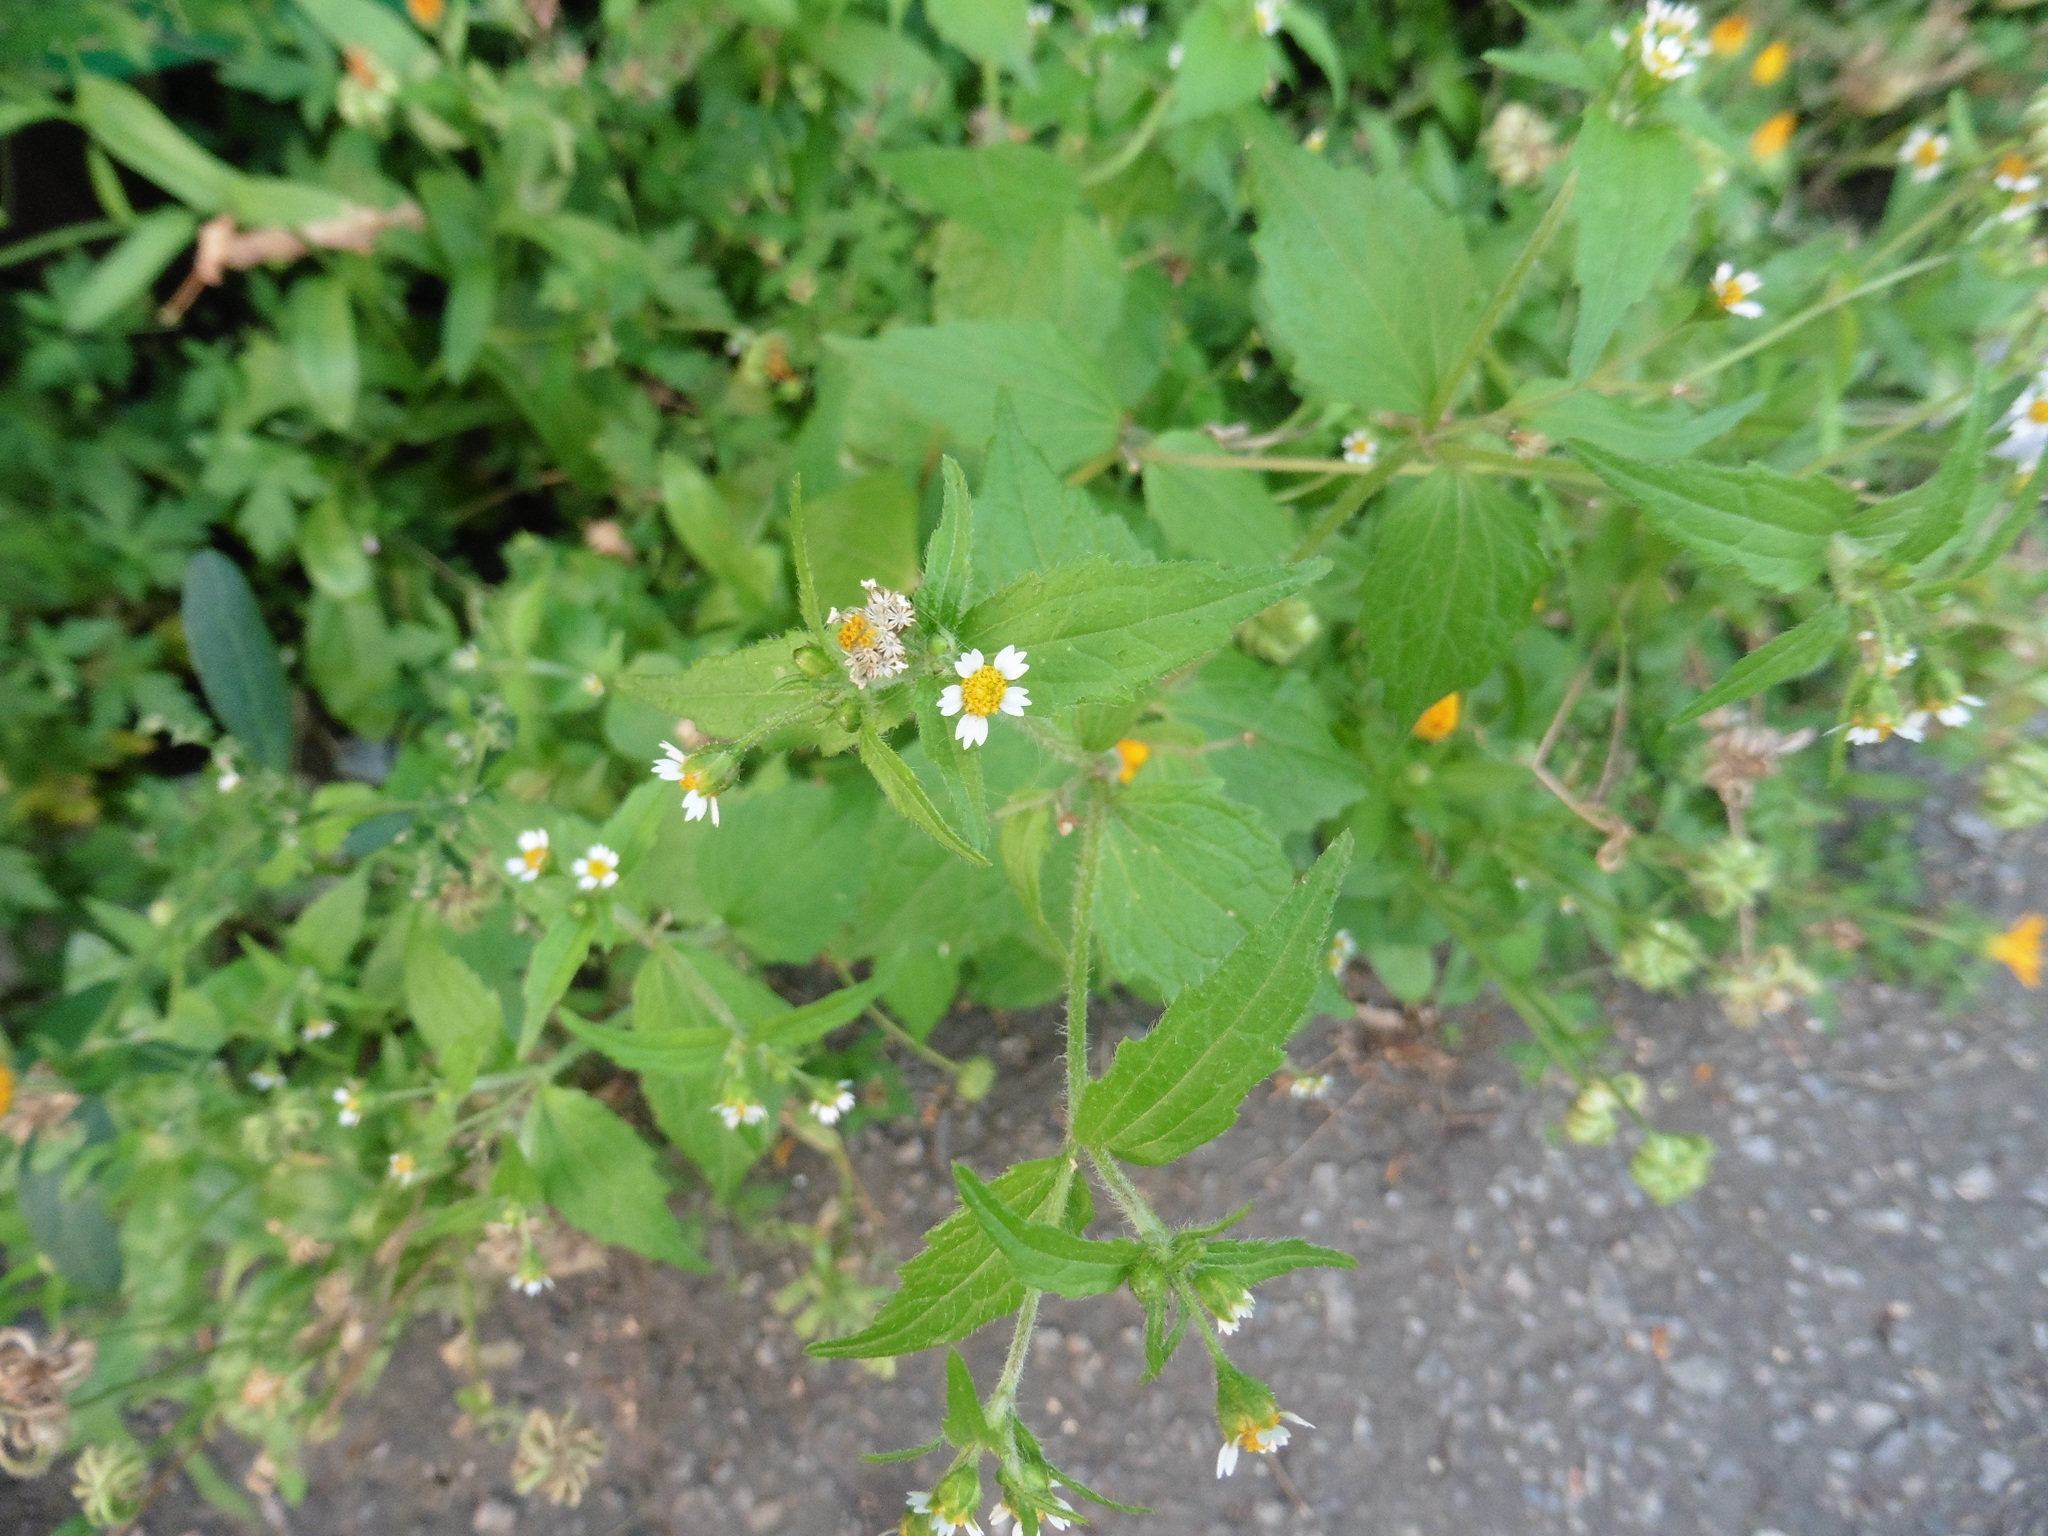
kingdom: Plantae
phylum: Tracheophyta
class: Magnoliopsida
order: Asterales
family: Asteraceae
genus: Galinsoga
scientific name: Galinsoga quadriradiata
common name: Shaggy soldier
